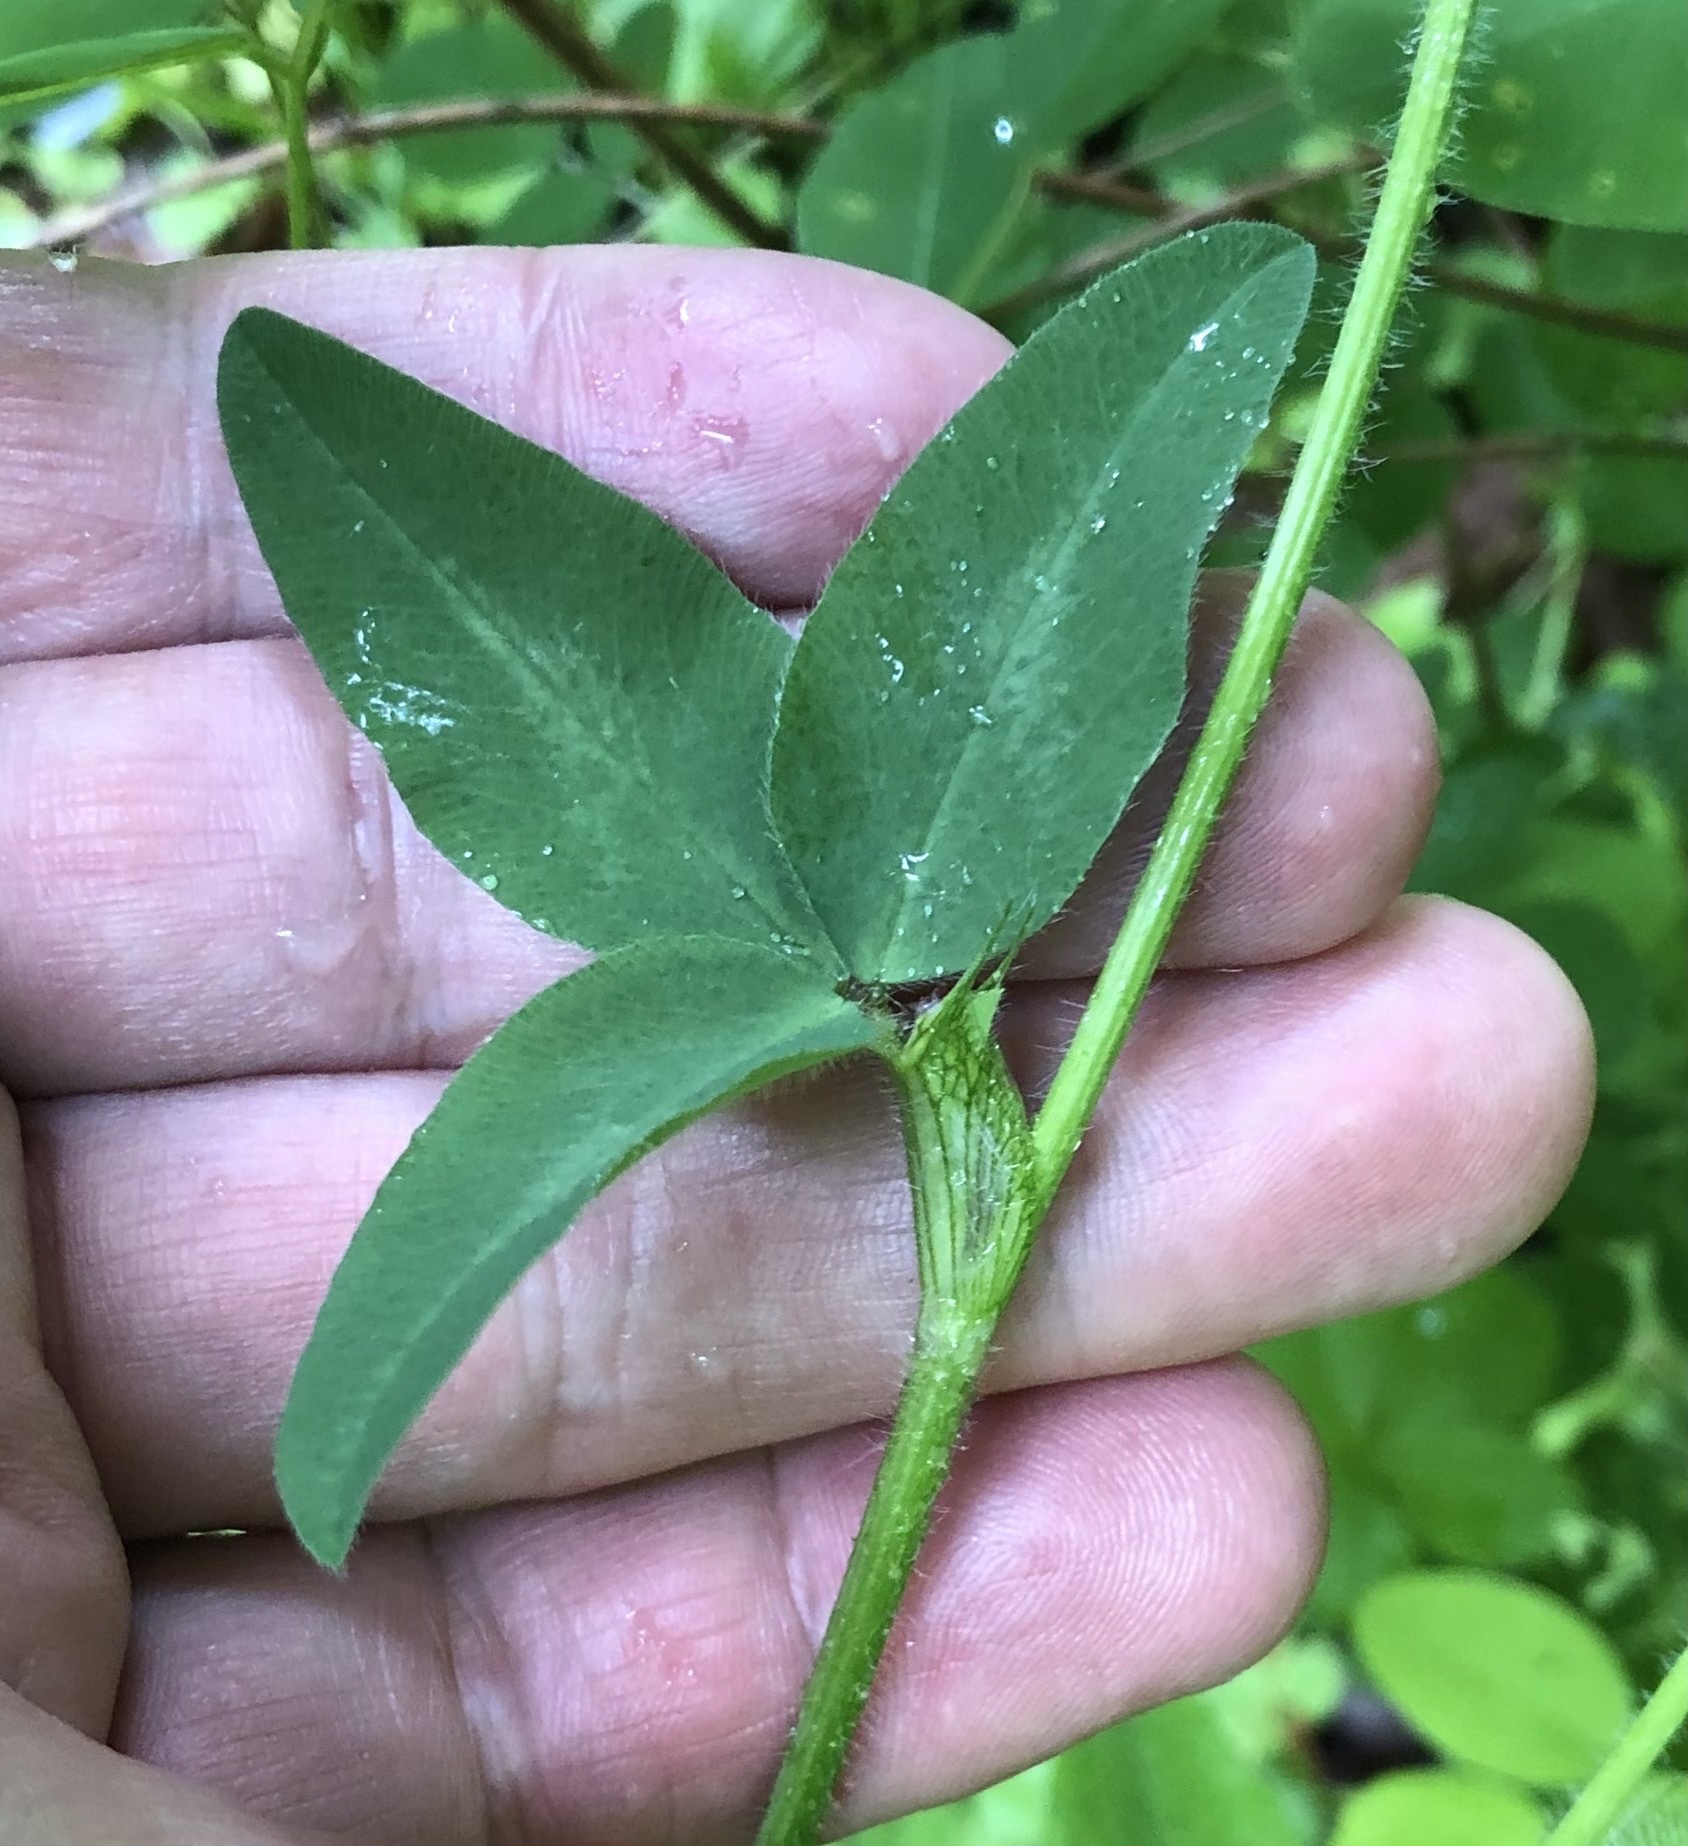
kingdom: Plantae
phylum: Tracheophyta
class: Magnoliopsida
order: Fabales
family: Fabaceae
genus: Trifolium
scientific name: Trifolium pratense
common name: Red clover
